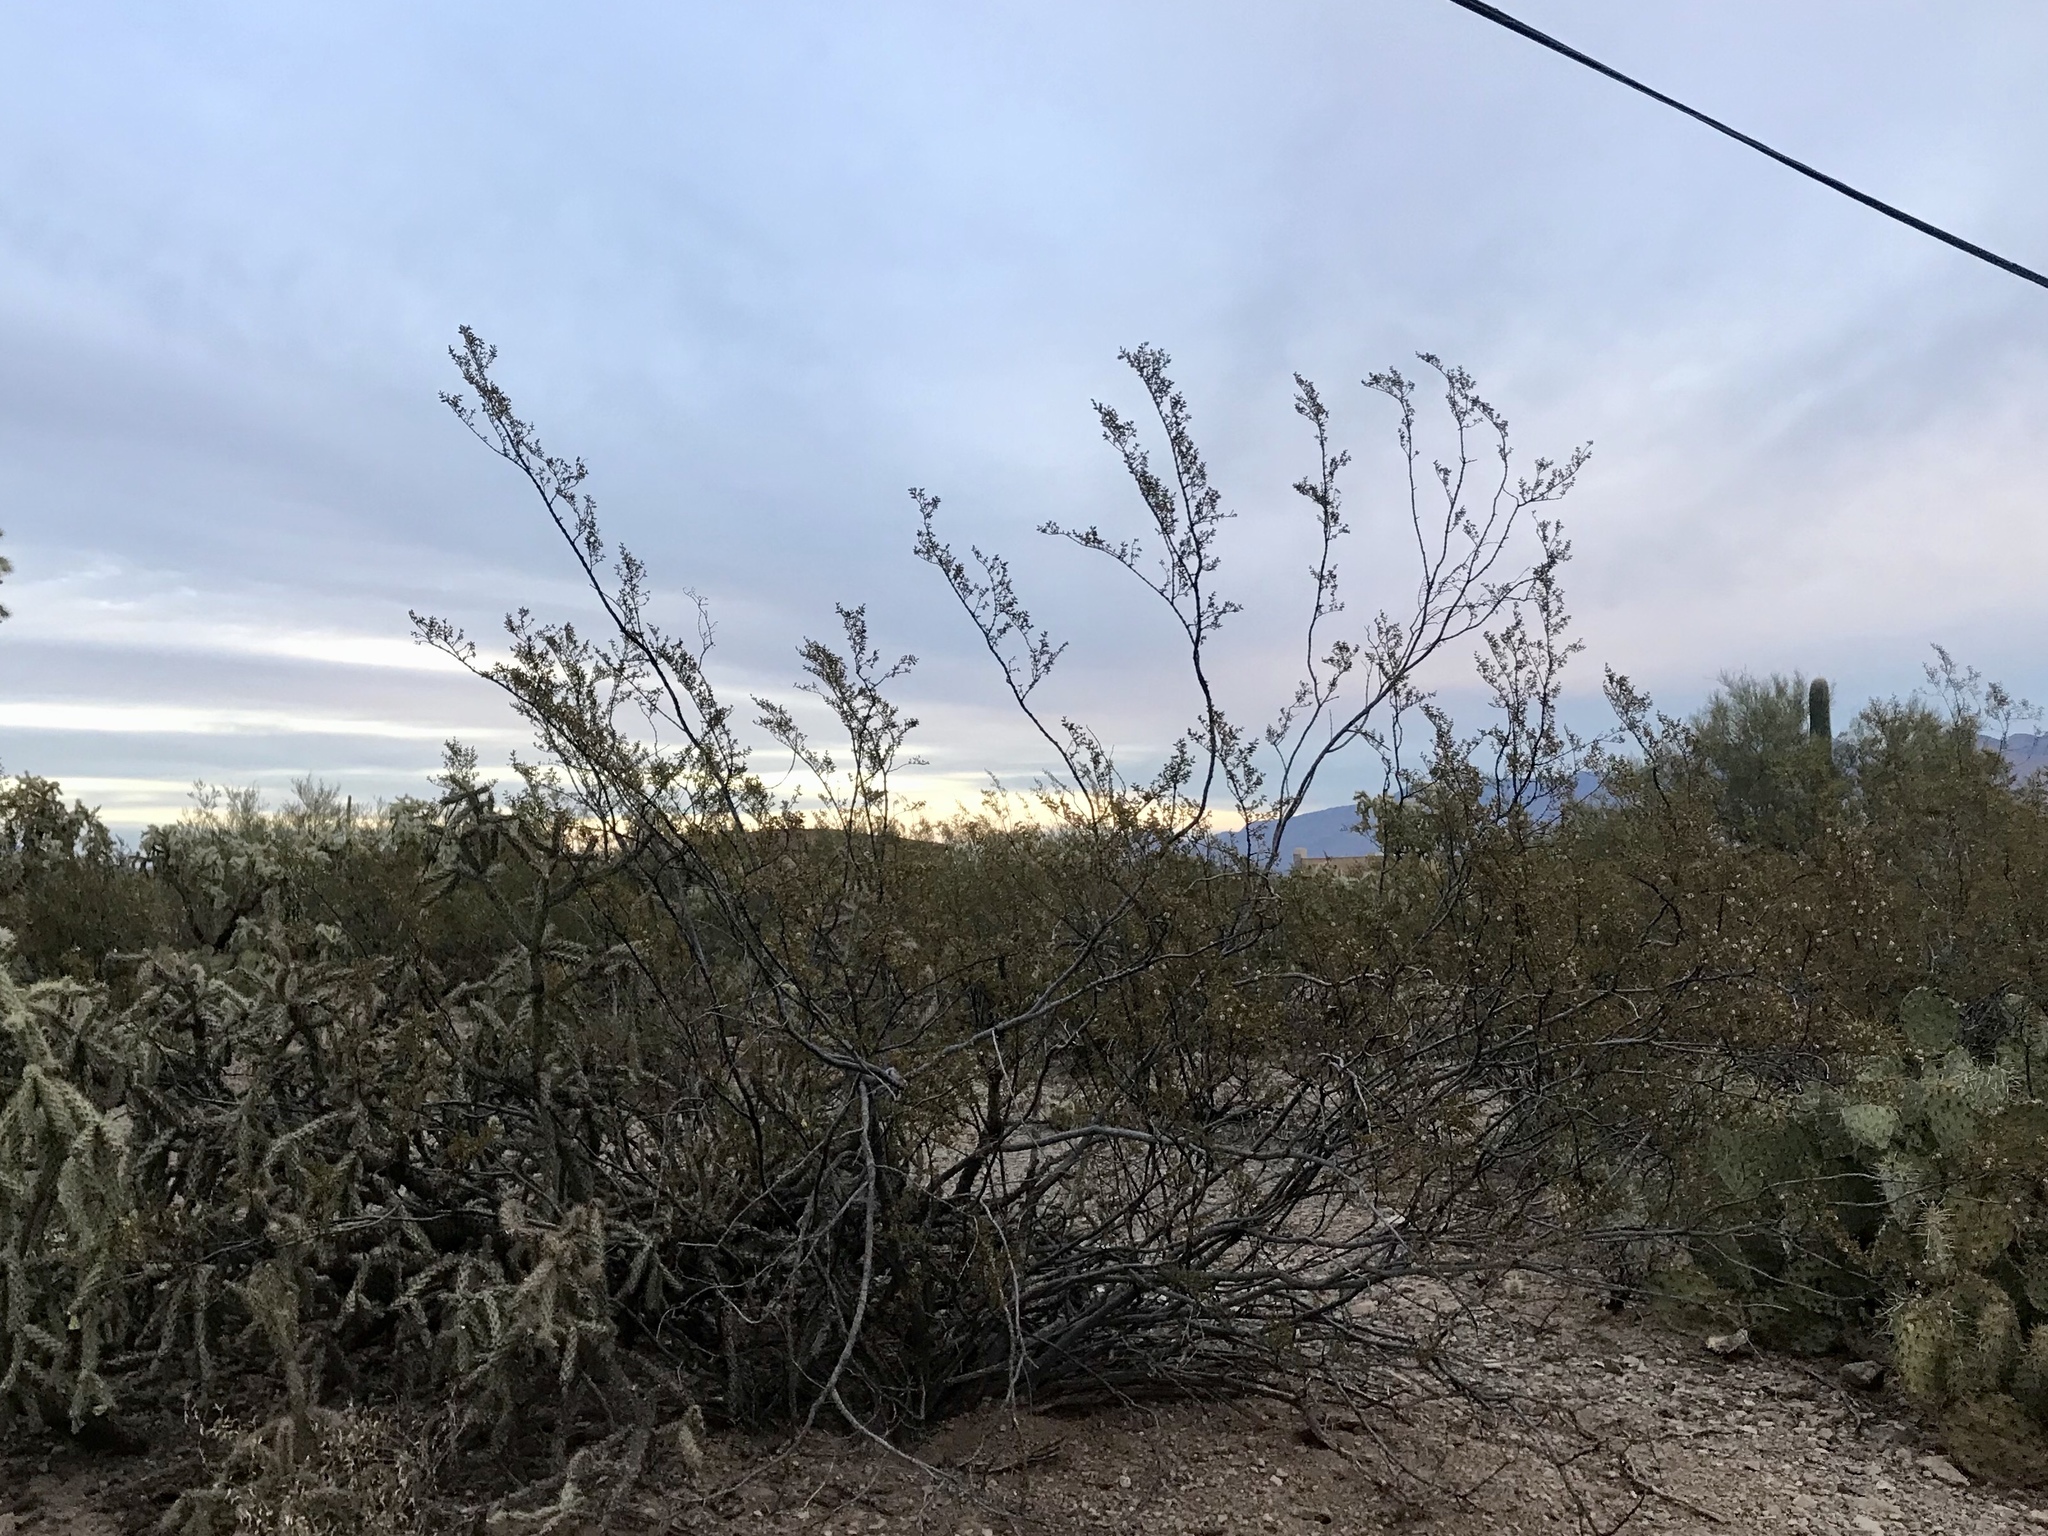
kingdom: Plantae
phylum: Tracheophyta
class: Magnoliopsida
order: Zygophyllales
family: Zygophyllaceae
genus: Larrea
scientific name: Larrea tridentata
